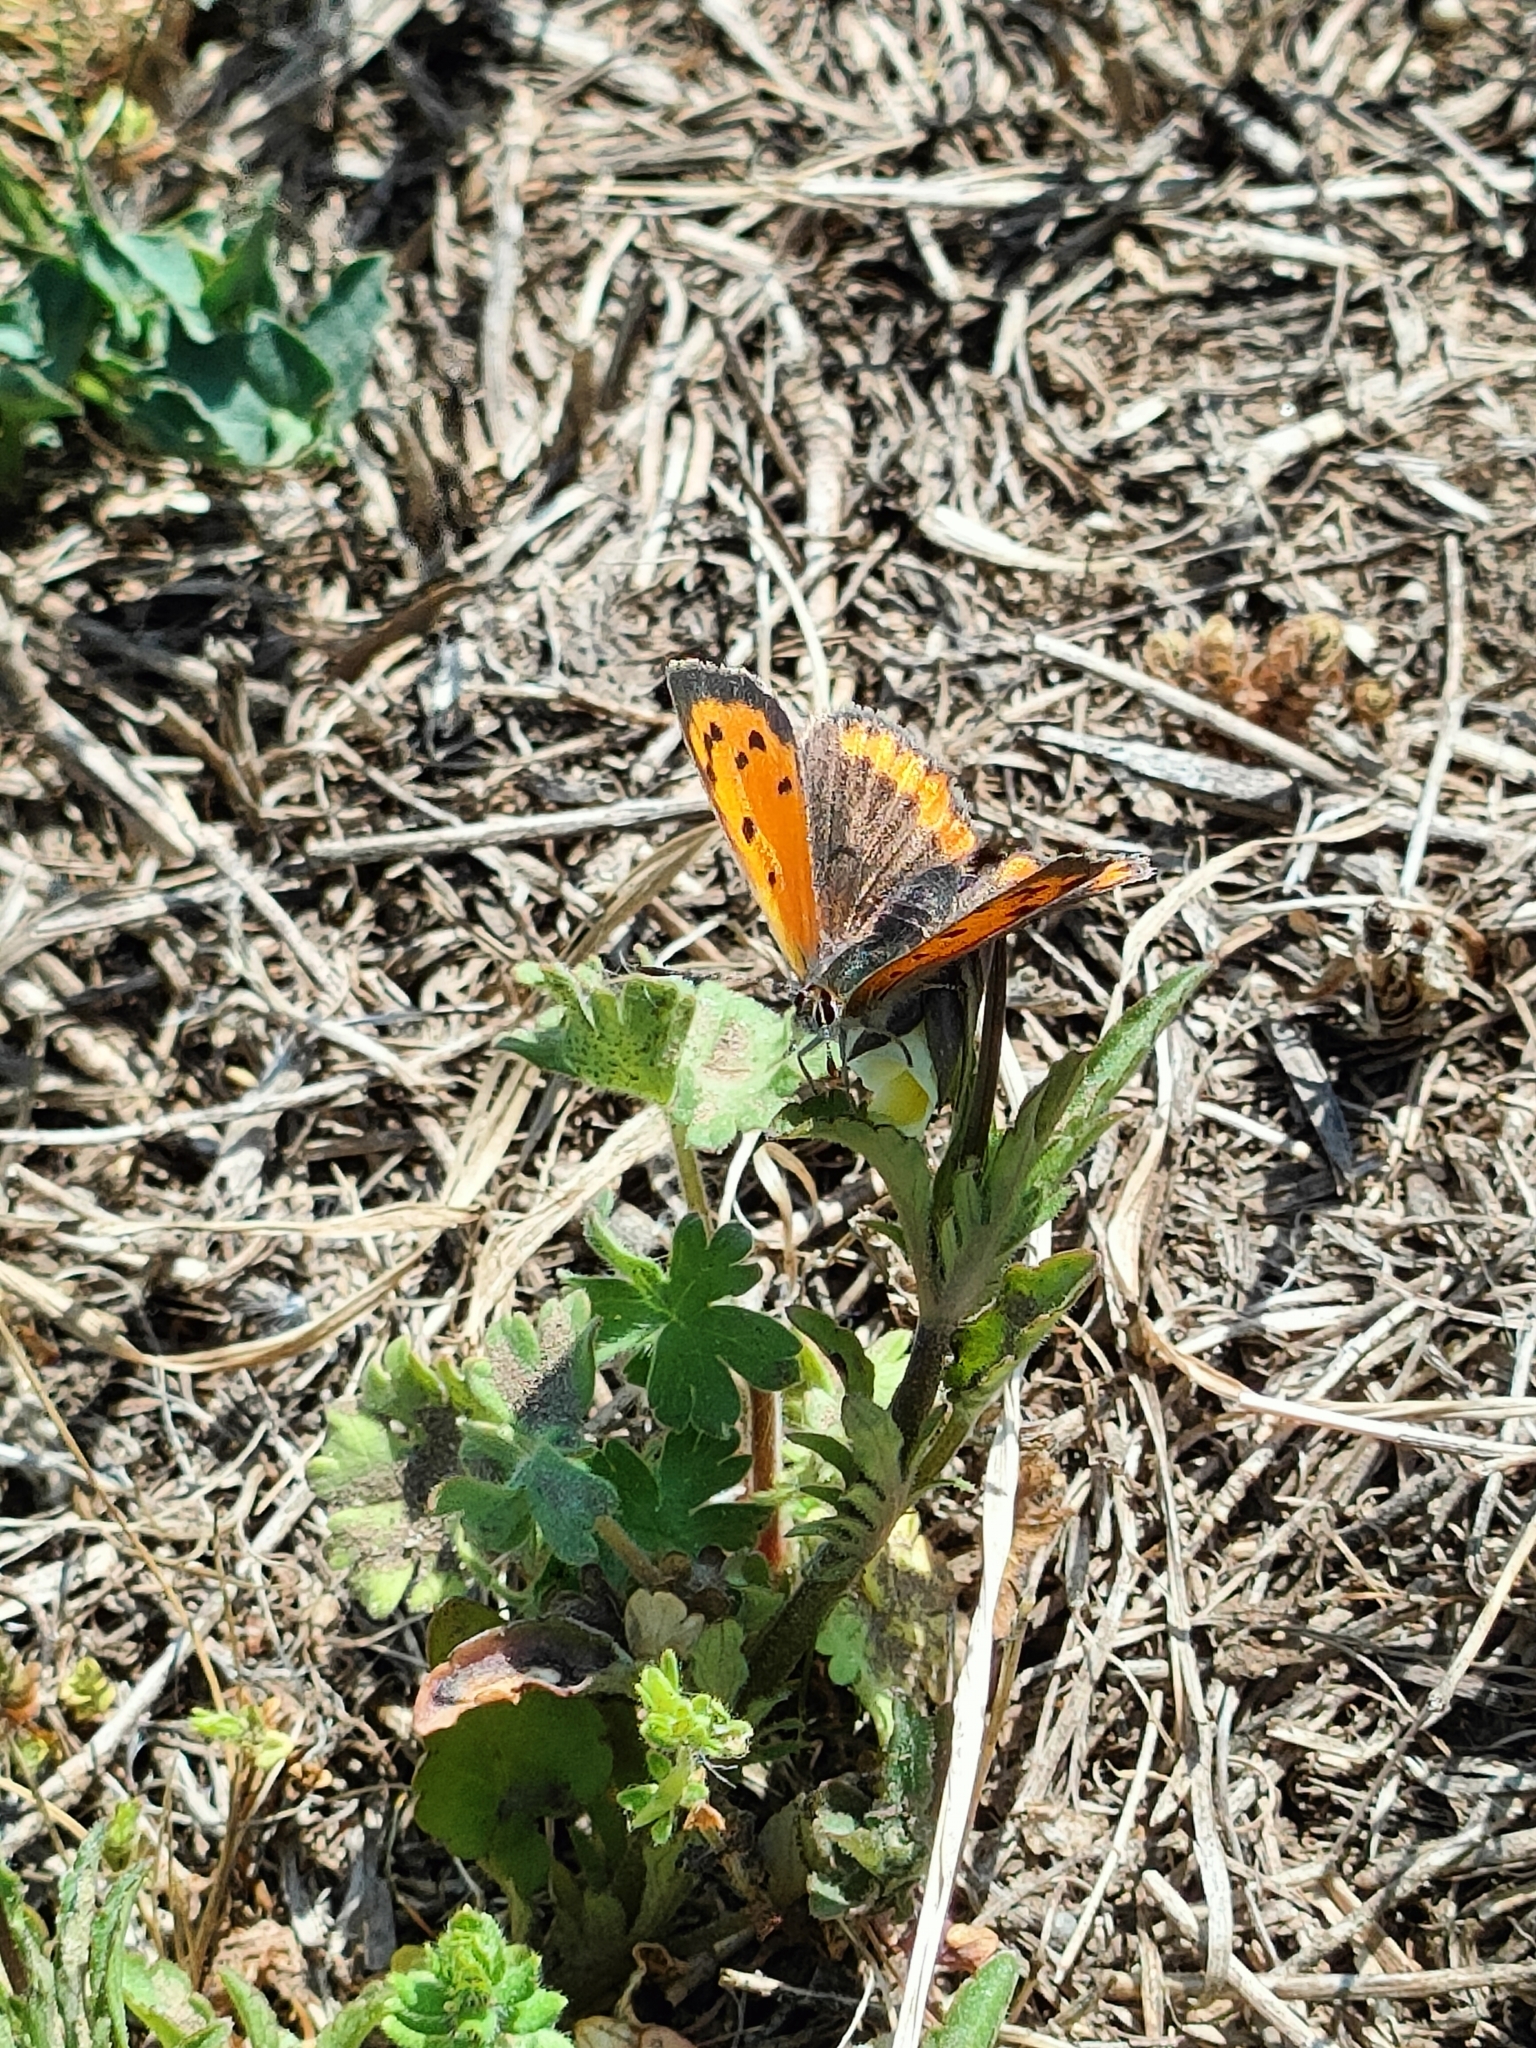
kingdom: Animalia
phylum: Arthropoda
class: Insecta
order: Lepidoptera
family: Lycaenidae
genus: Lycaena
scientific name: Lycaena phlaeas
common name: Small copper
